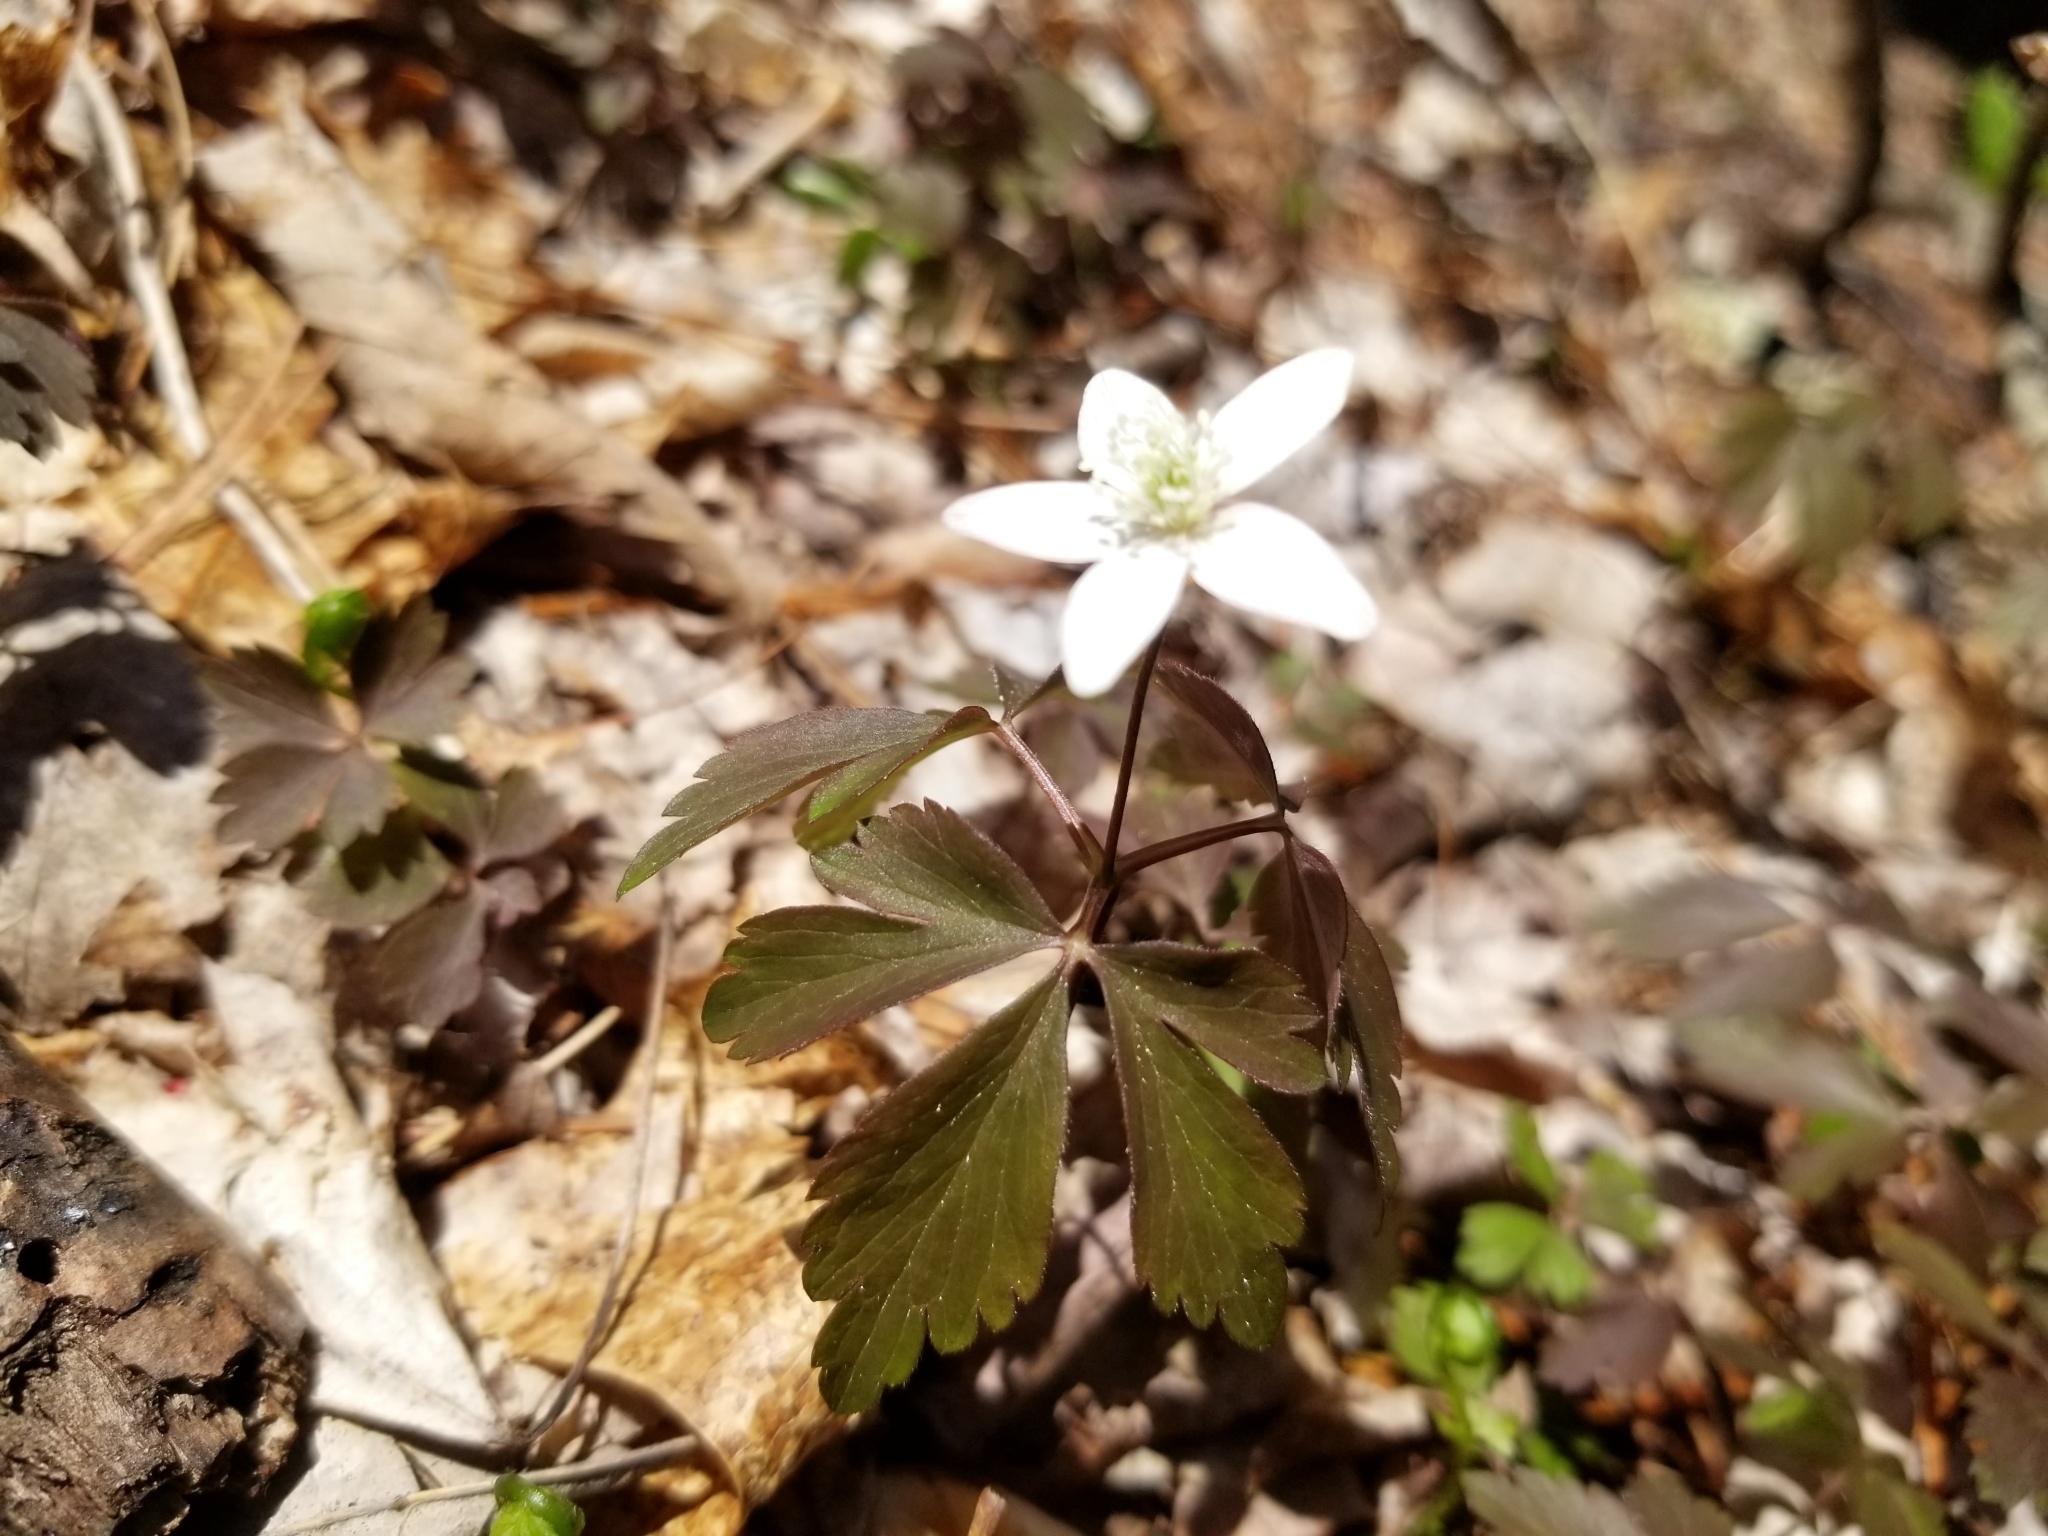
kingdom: Plantae
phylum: Tracheophyta
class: Magnoliopsida
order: Ranunculales
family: Ranunculaceae
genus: Anemone
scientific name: Anemone quinquefolia
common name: Wood anemone
